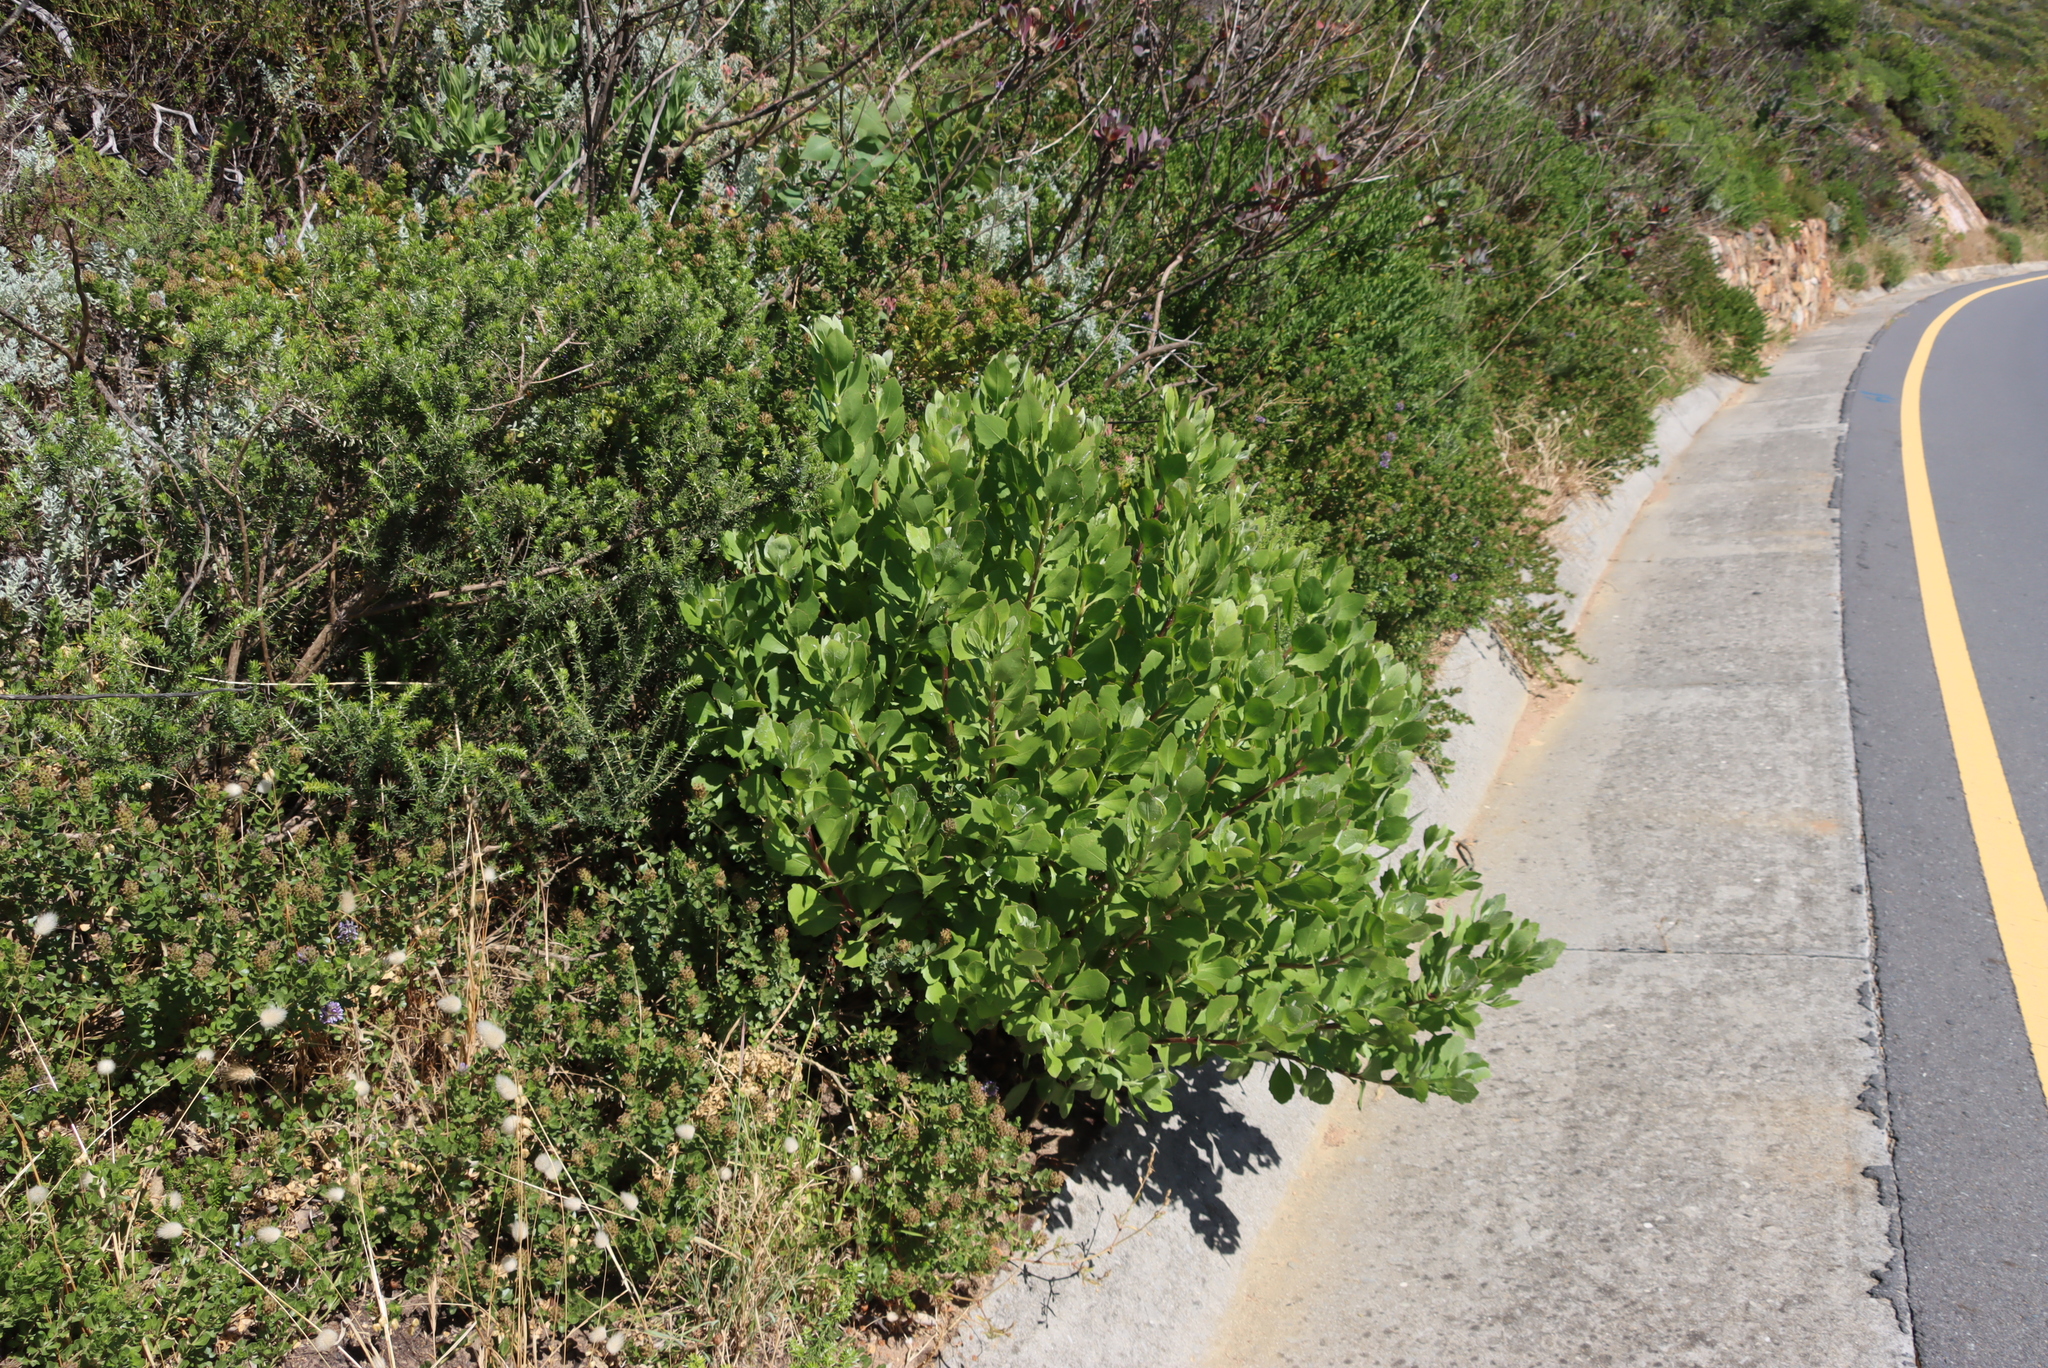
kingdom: Plantae
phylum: Tracheophyta
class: Magnoliopsida
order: Asterales
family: Asteraceae
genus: Osteospermum
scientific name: Osteospermum moniliferum
